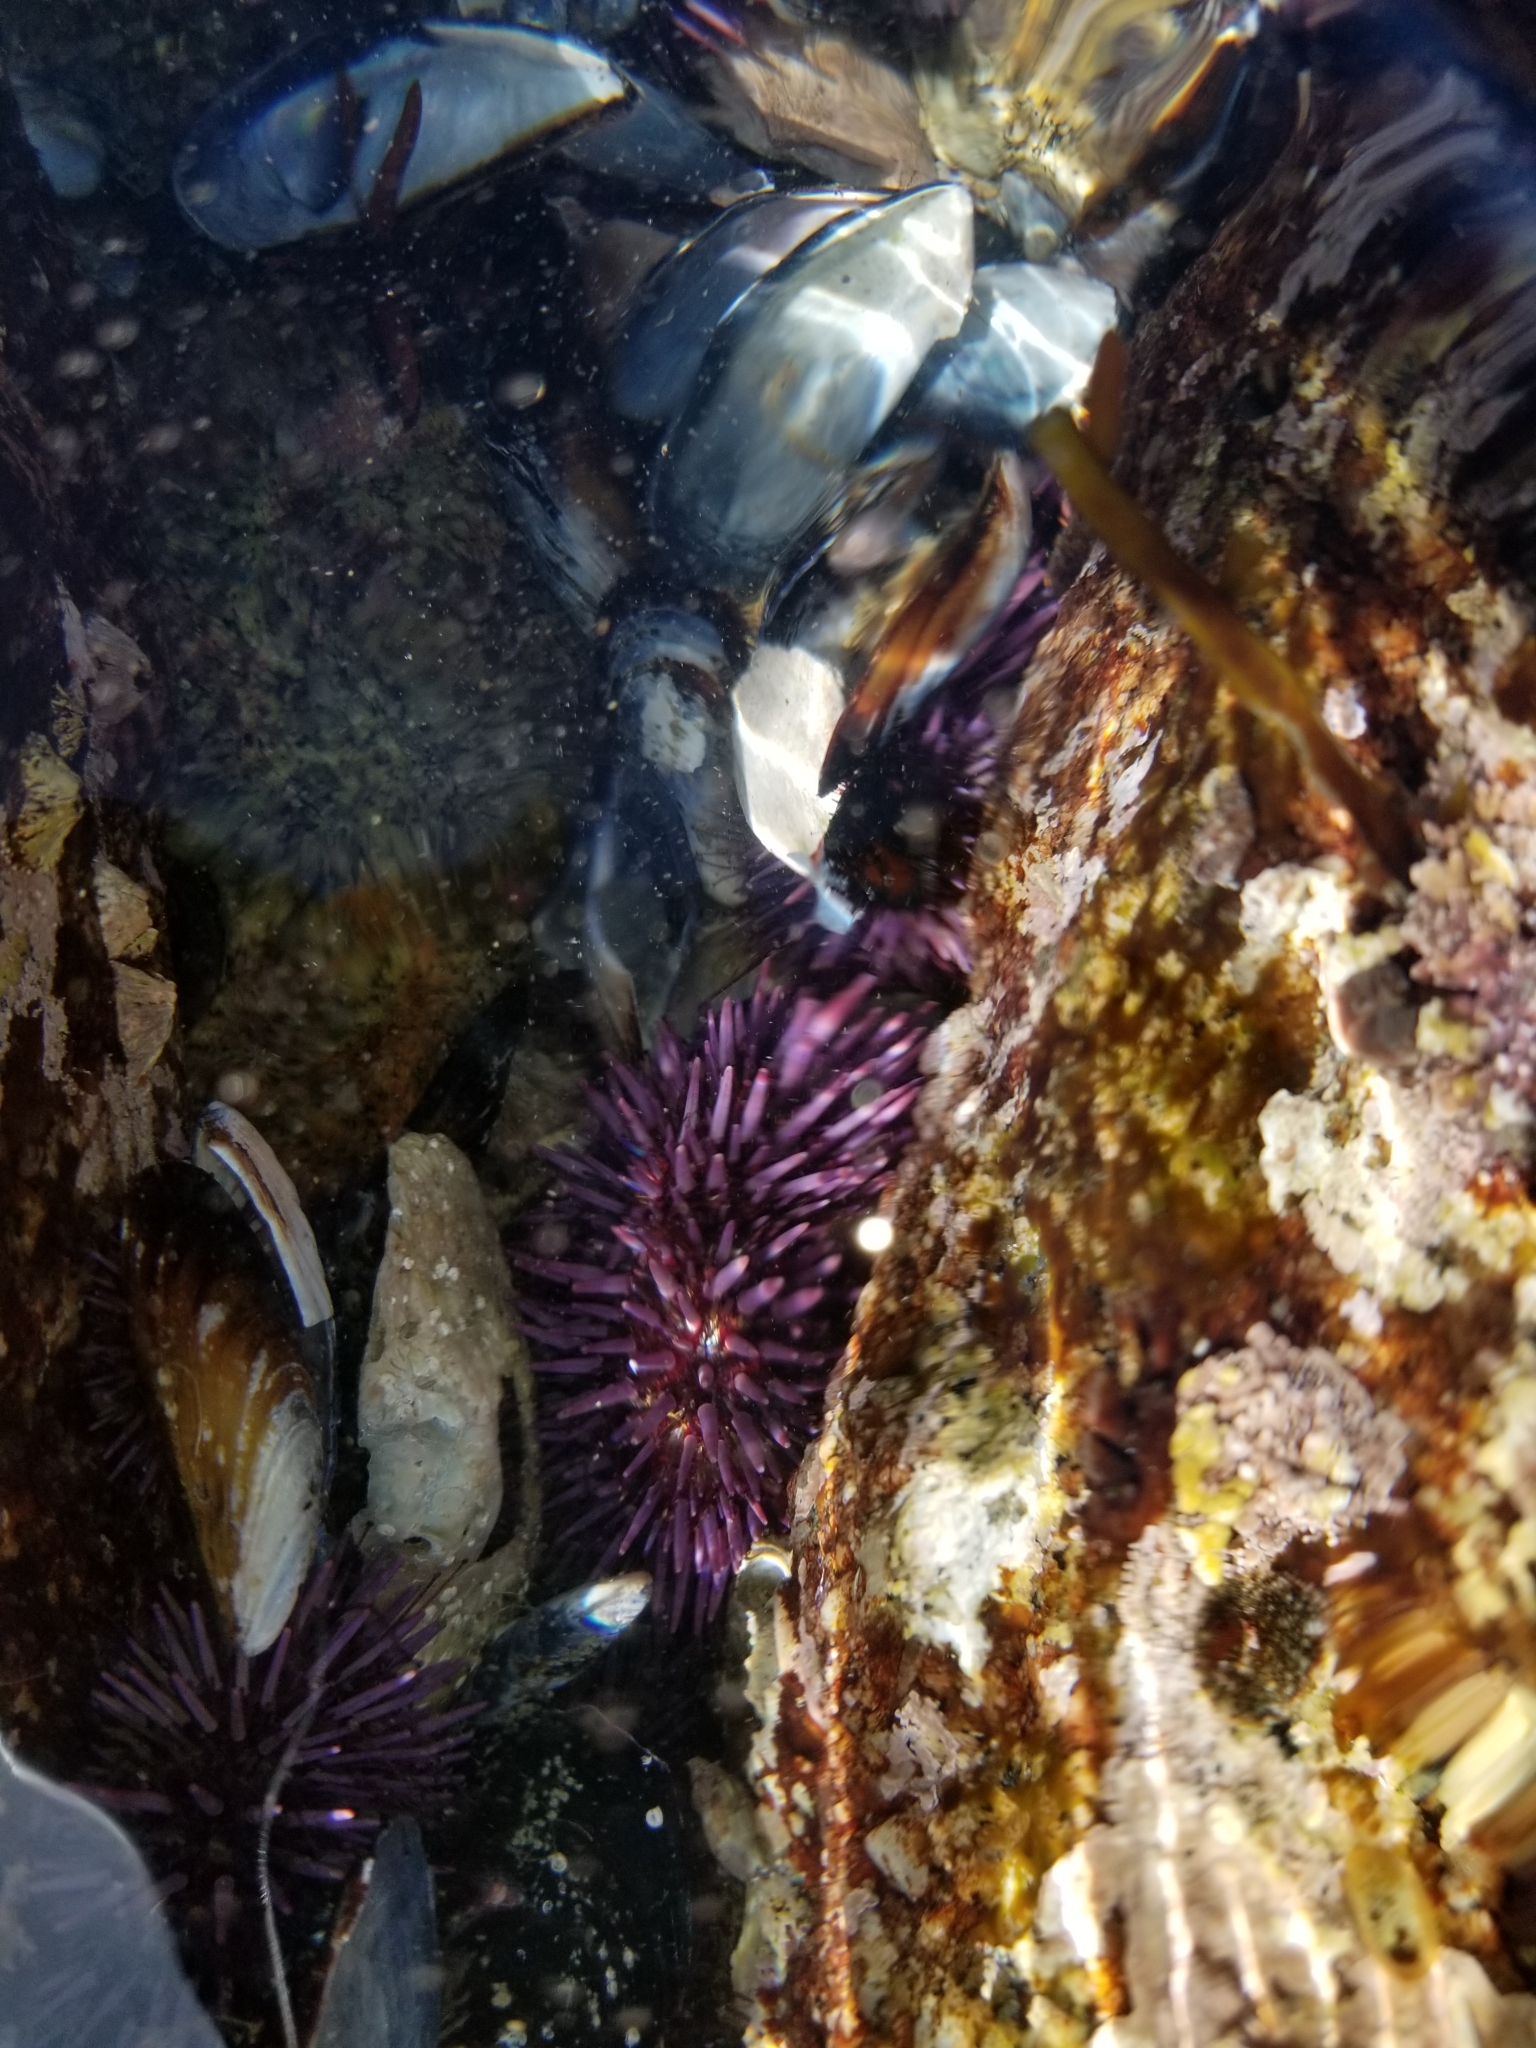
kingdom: Animalia
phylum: Echinodermata
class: Echinoidea
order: Camarodonta
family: Strongylocentrotidae
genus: Strongylocentrotus
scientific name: Strongylocentrotus purpuratus
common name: Purple sea urchin
